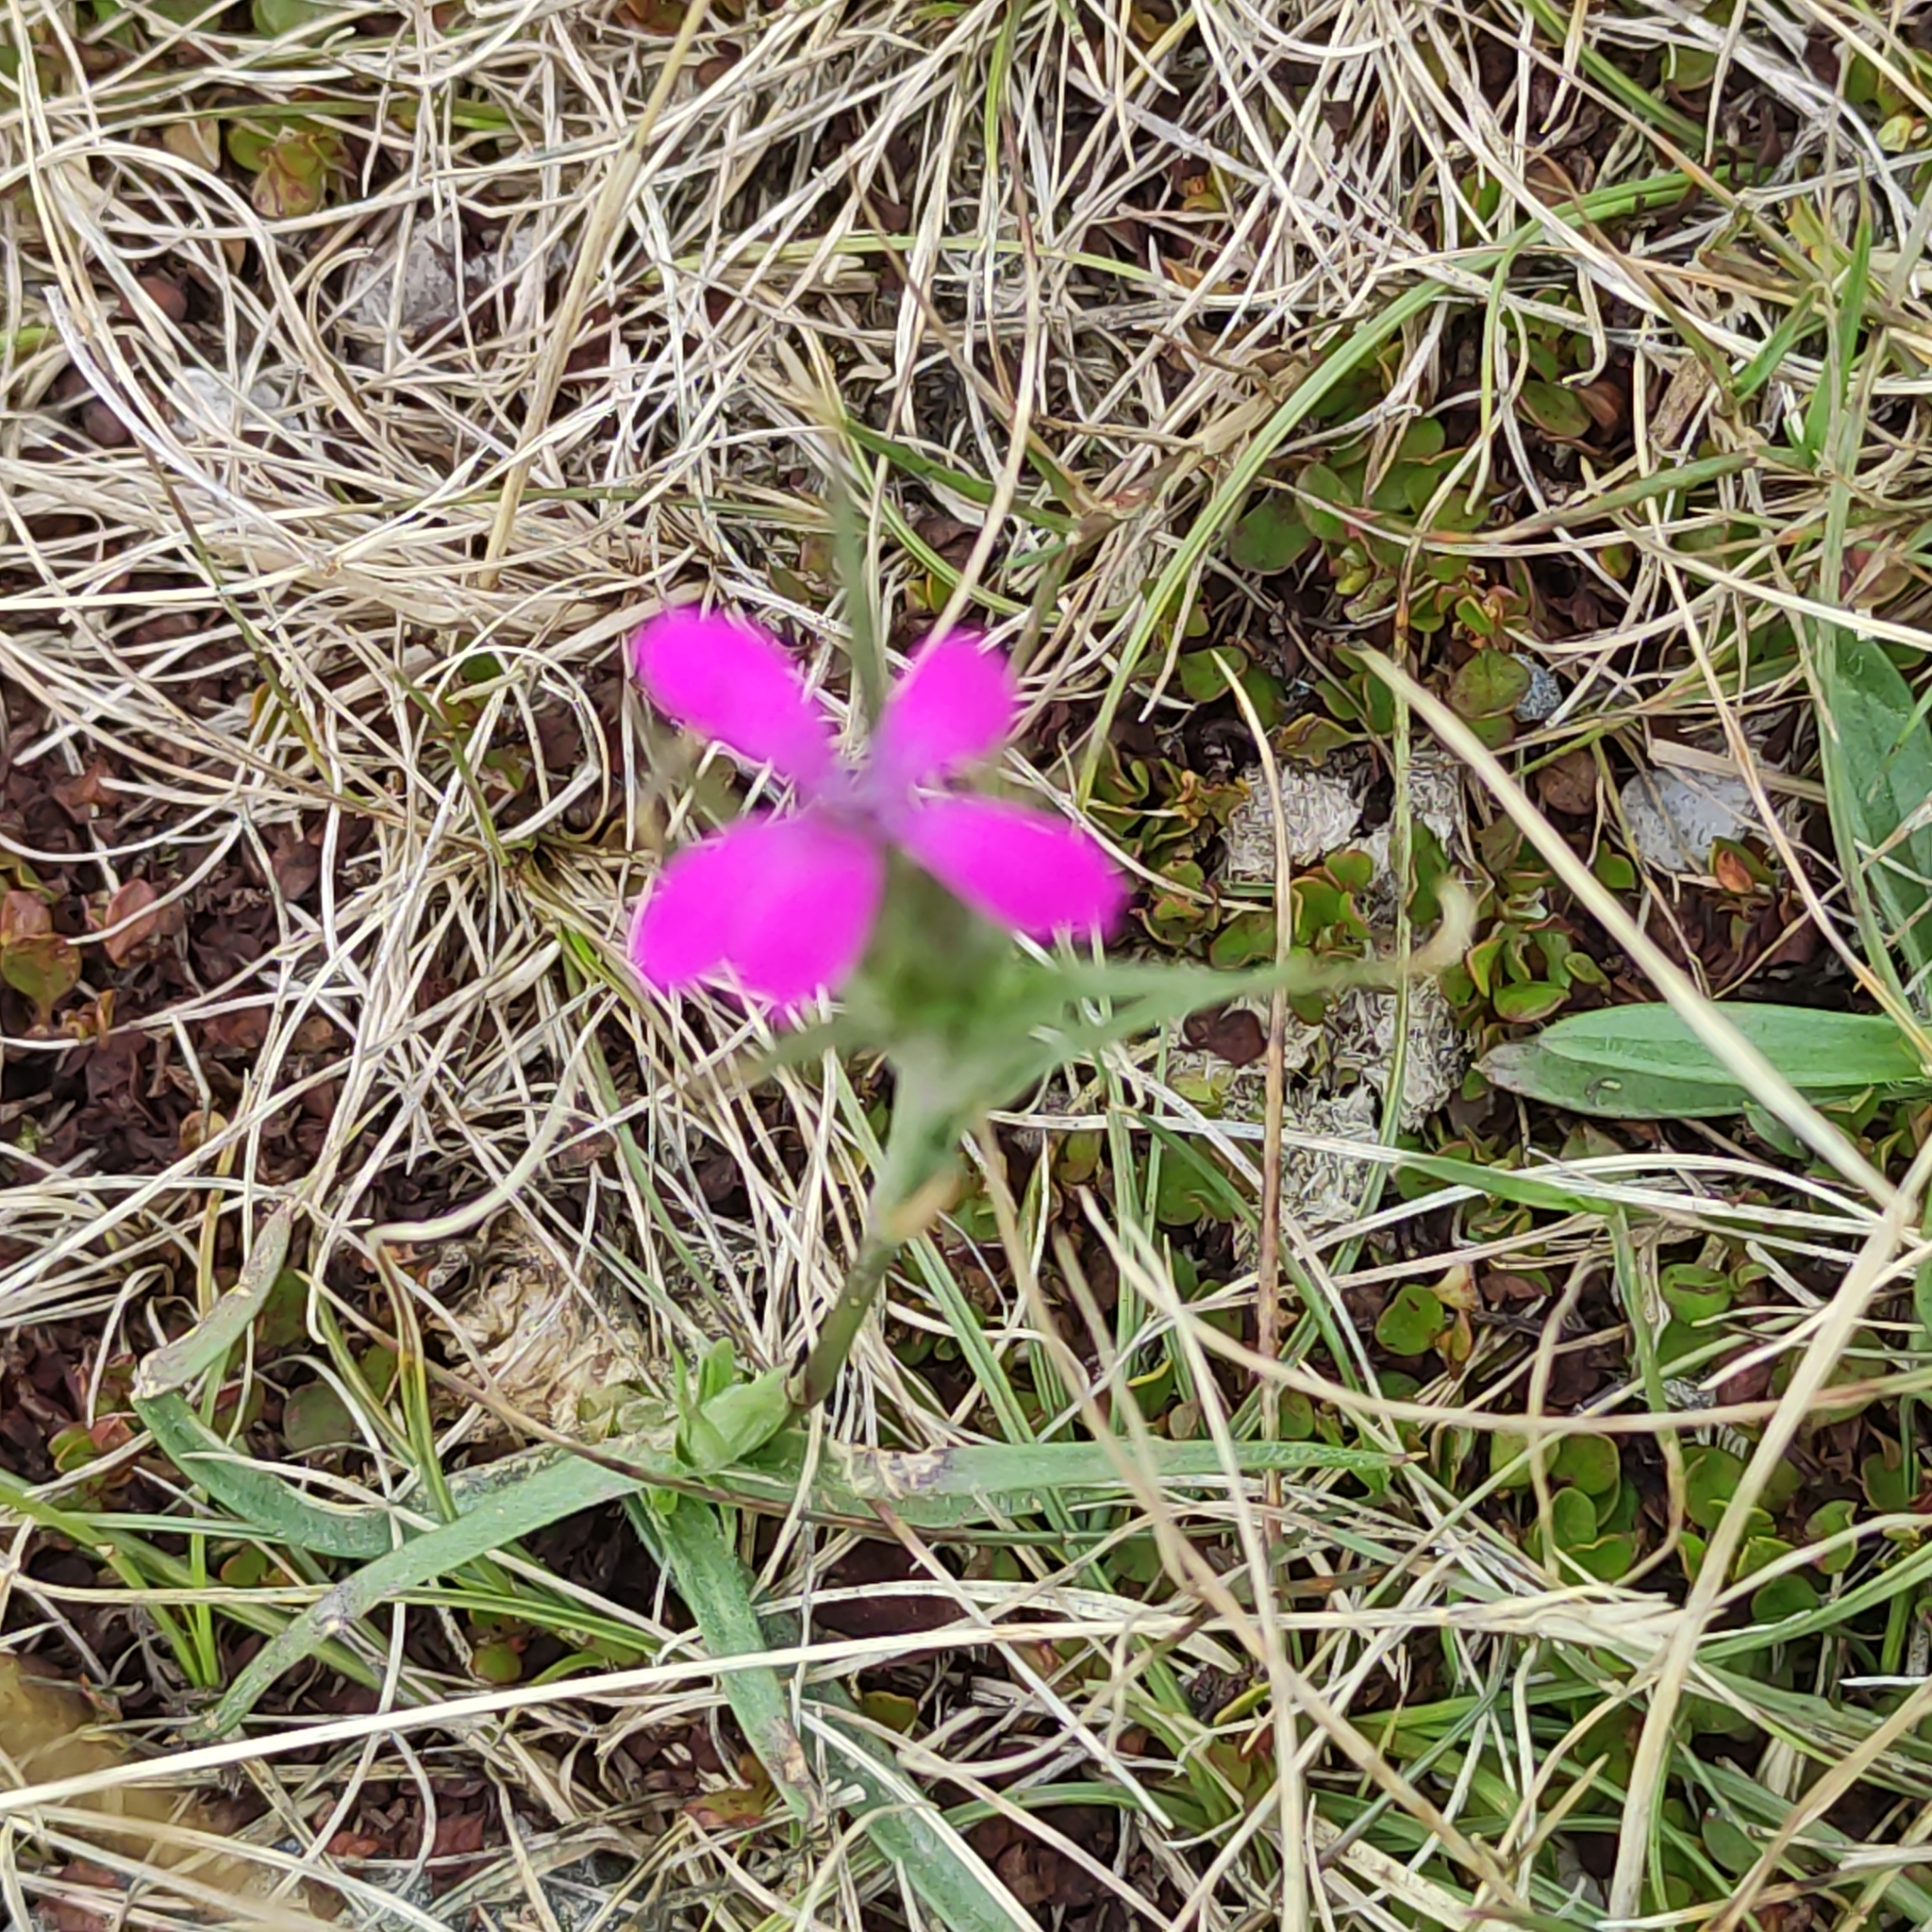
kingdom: Plantae
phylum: Tracheophyta
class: Magnoliopsida
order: Caryophyllales
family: Caryophyllaceae
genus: Dianthus
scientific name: Dianthus armeria
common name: Deptford pink
